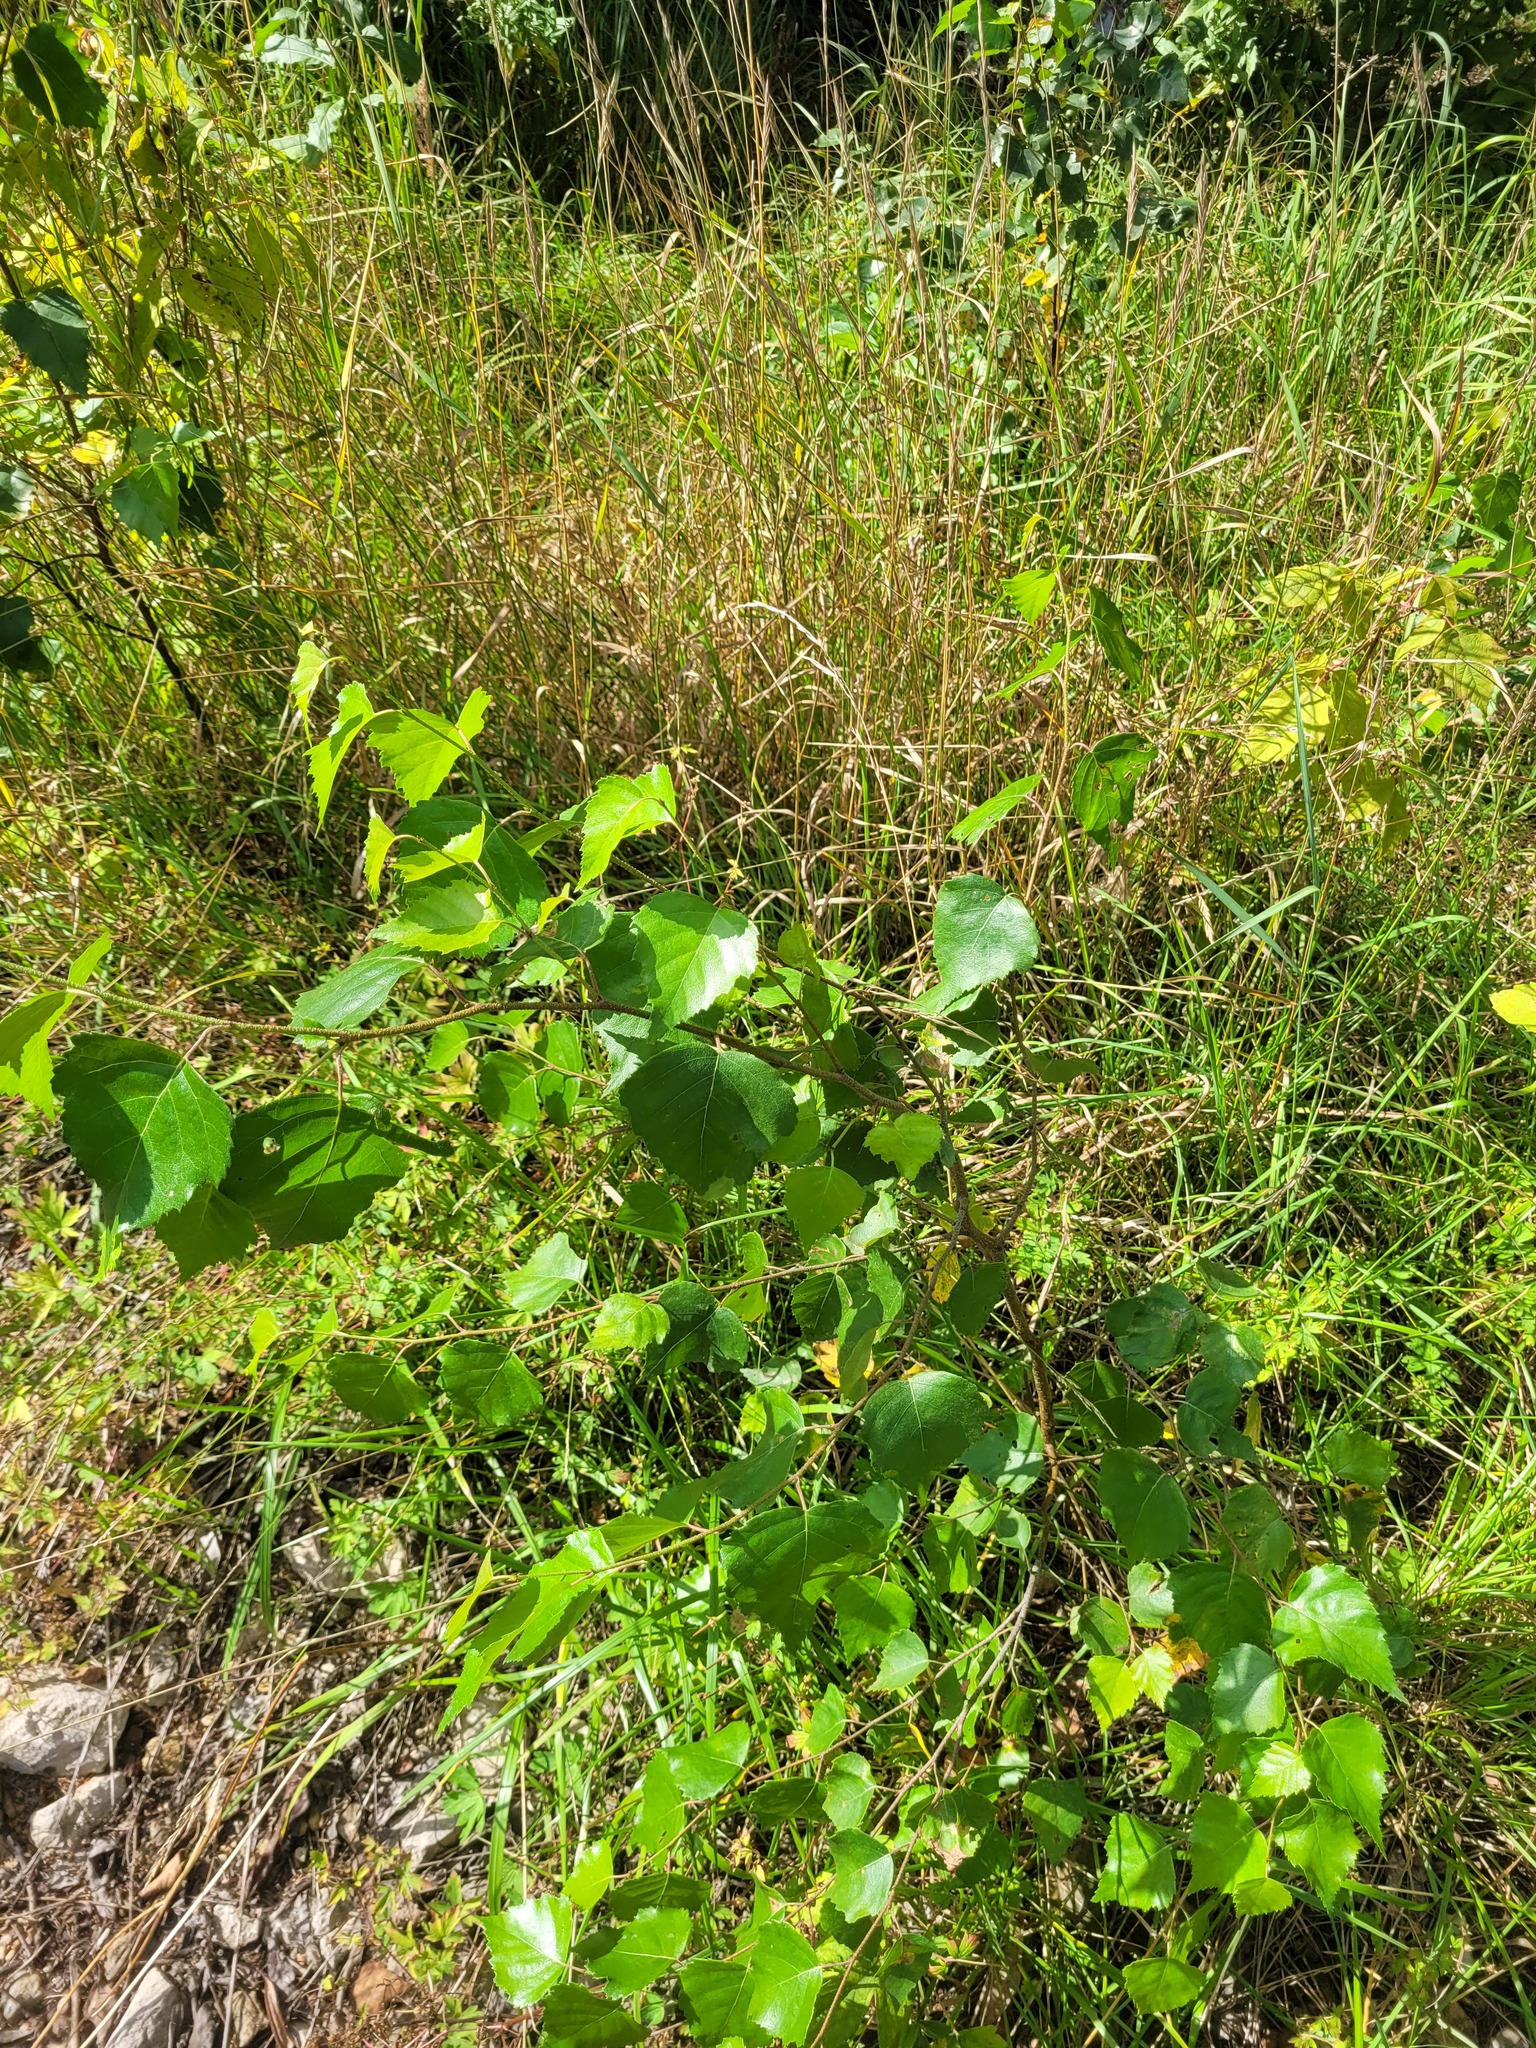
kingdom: Plantae
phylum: Tracheophyta
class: Magnoliopsida
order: Fagales
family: Betulaceae
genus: Betula
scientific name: Betula pendula
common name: Silver birch
